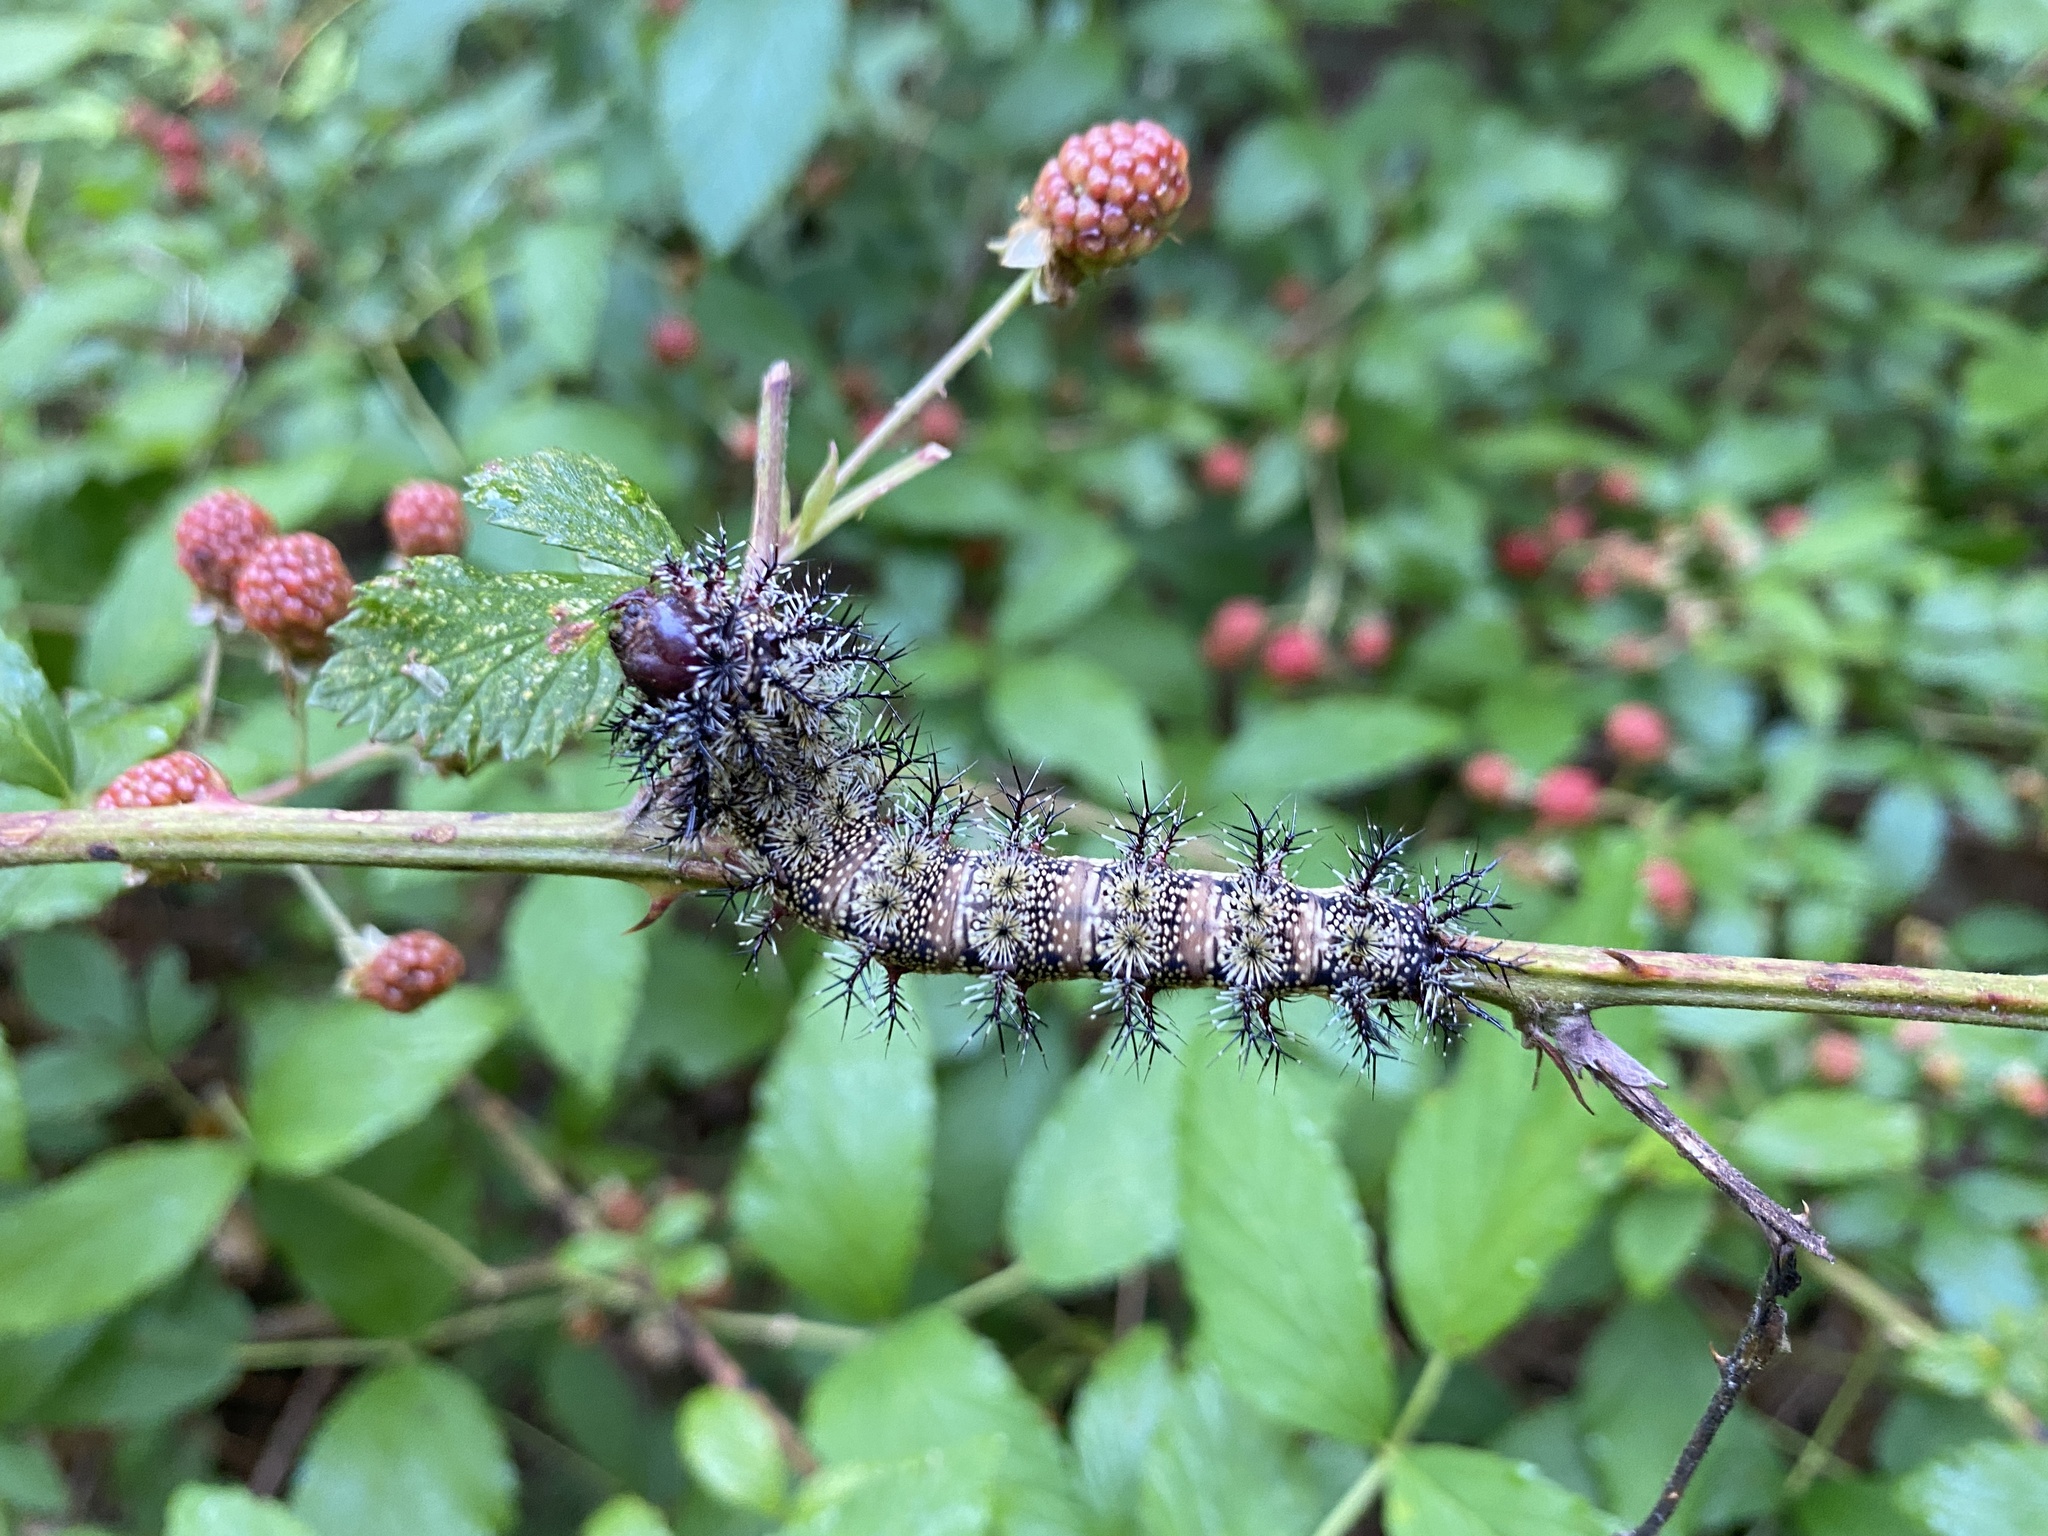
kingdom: Animalia
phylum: Arthropoda
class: Insecta
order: Lepidoptera
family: Saturniidae
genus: Hemileuca
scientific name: Hemileuca maia
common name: Eastern buckmoth
